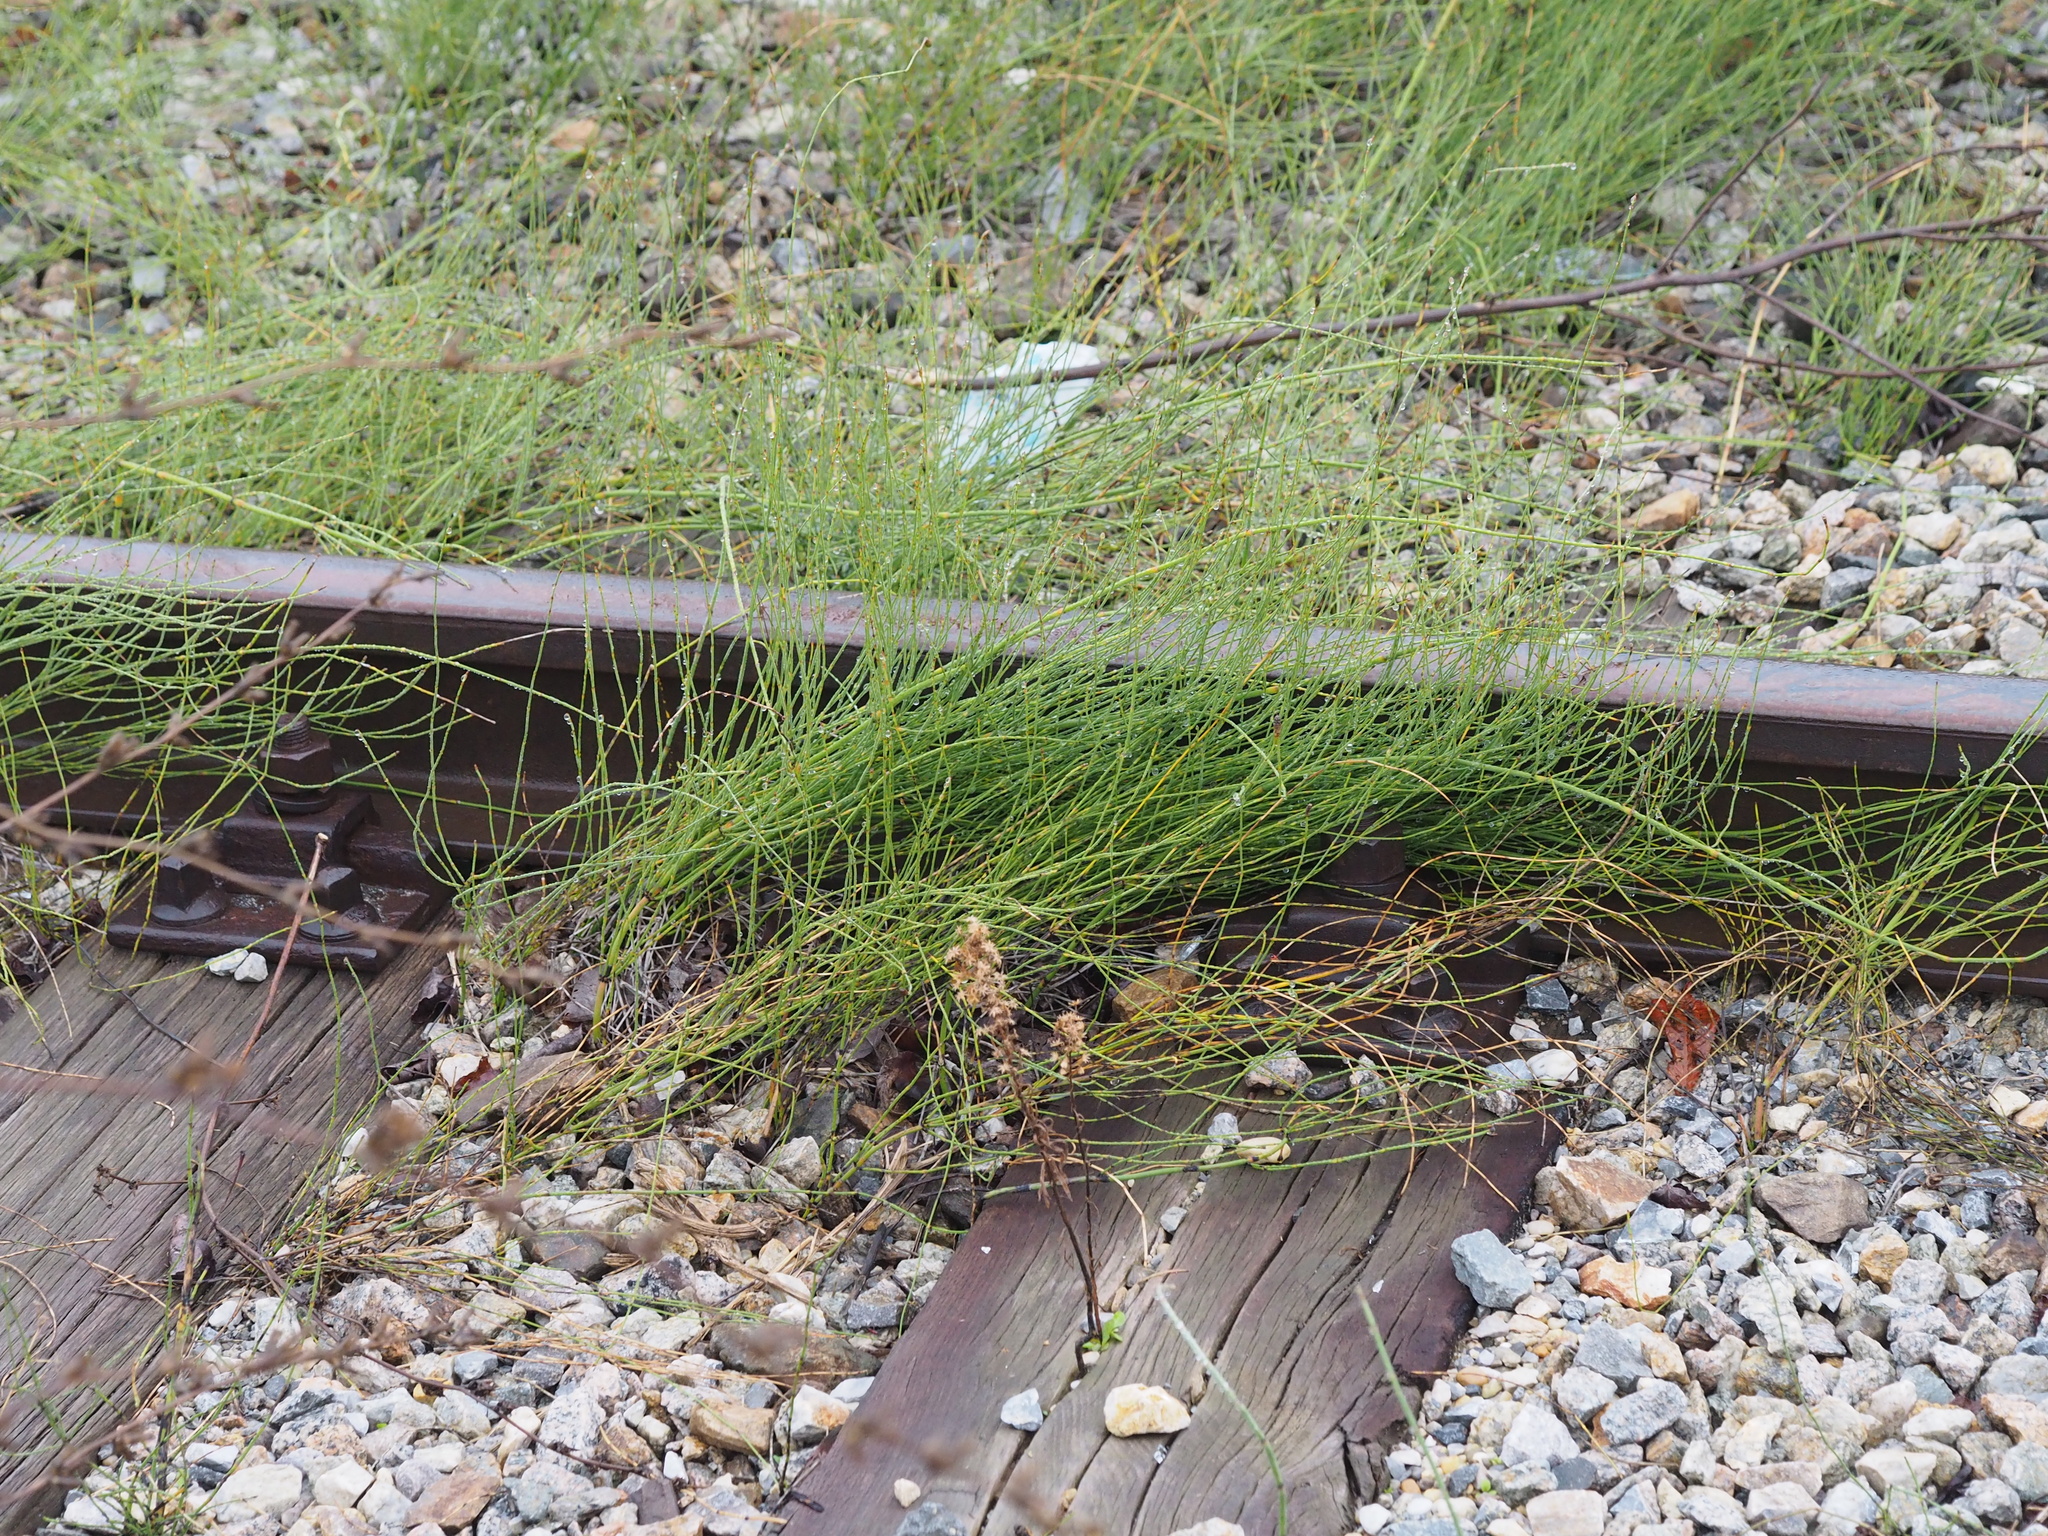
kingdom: Plantae
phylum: Tracheophyta
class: Polypodiopsida
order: Equisetales
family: Equisetaceae
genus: Equisetum
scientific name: Equisetum ramosissimum
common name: Branched horsetail
